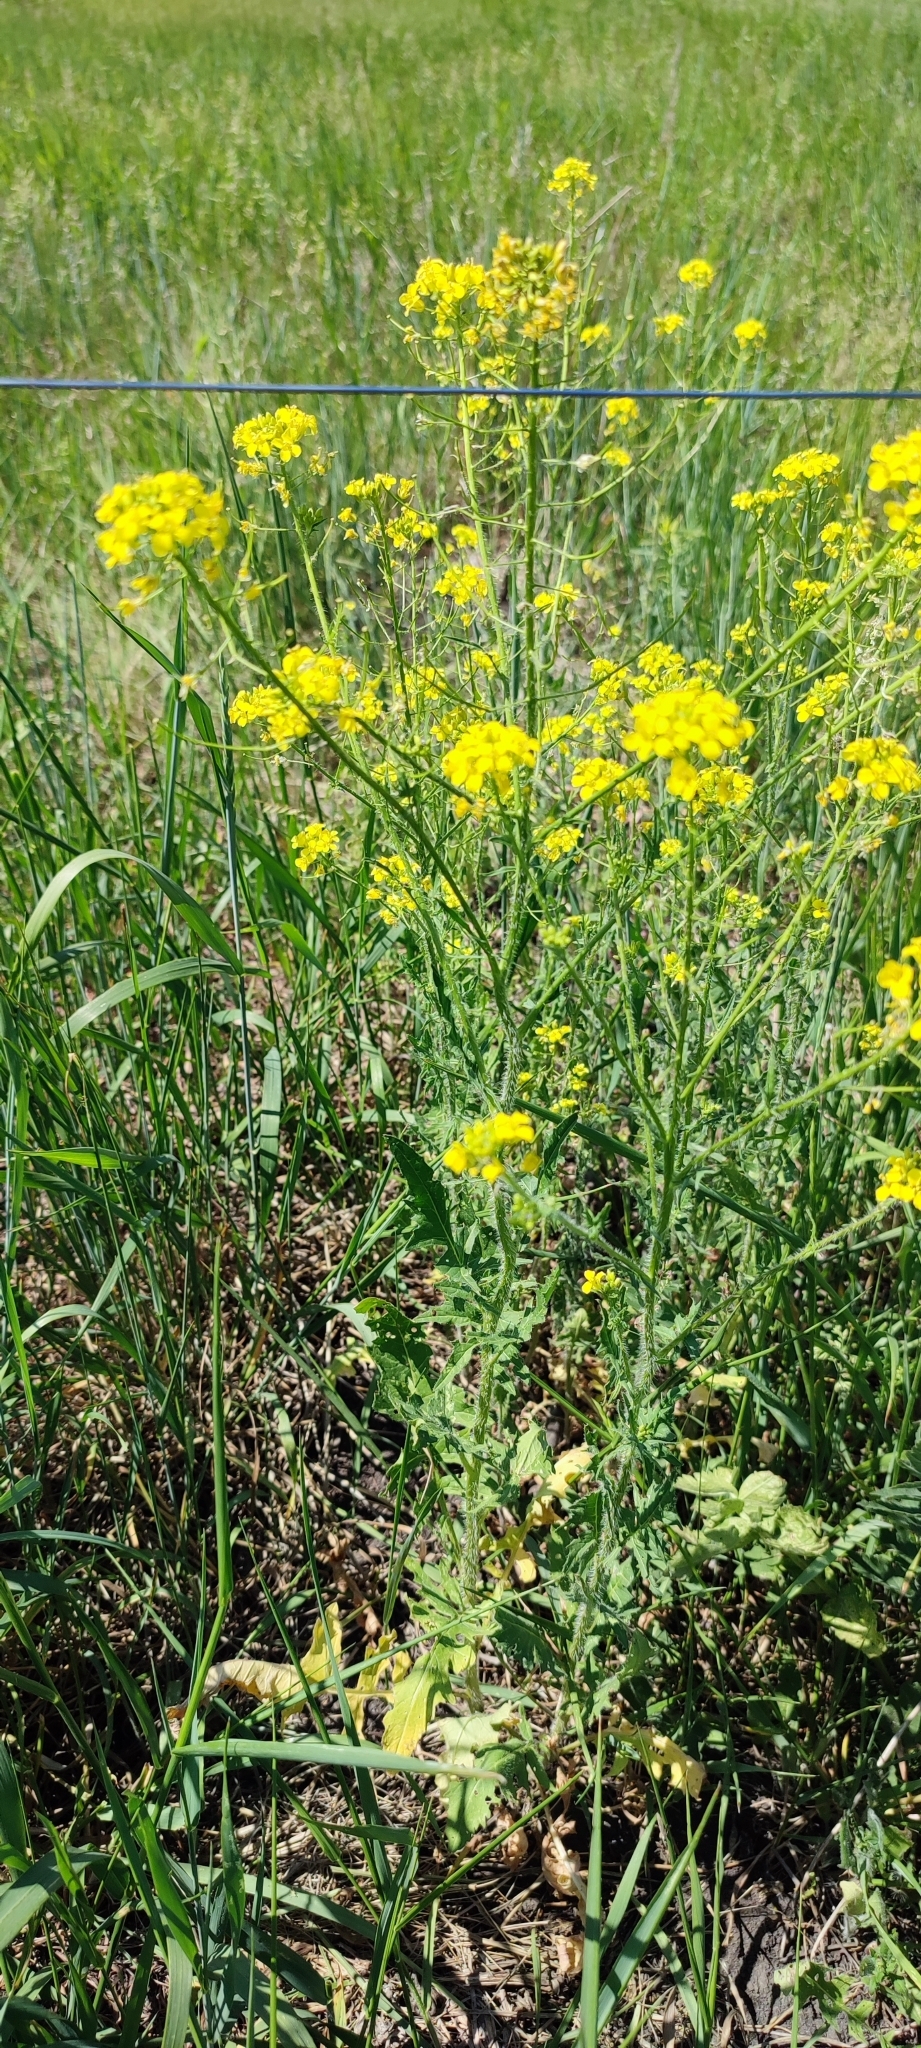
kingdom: Plantae
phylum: Tracheophyta
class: Magnoliopsida
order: Brassicales
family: Brassicaceae
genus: Sisymbrium
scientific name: Sisymbrium loeselii
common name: False london-rocket
